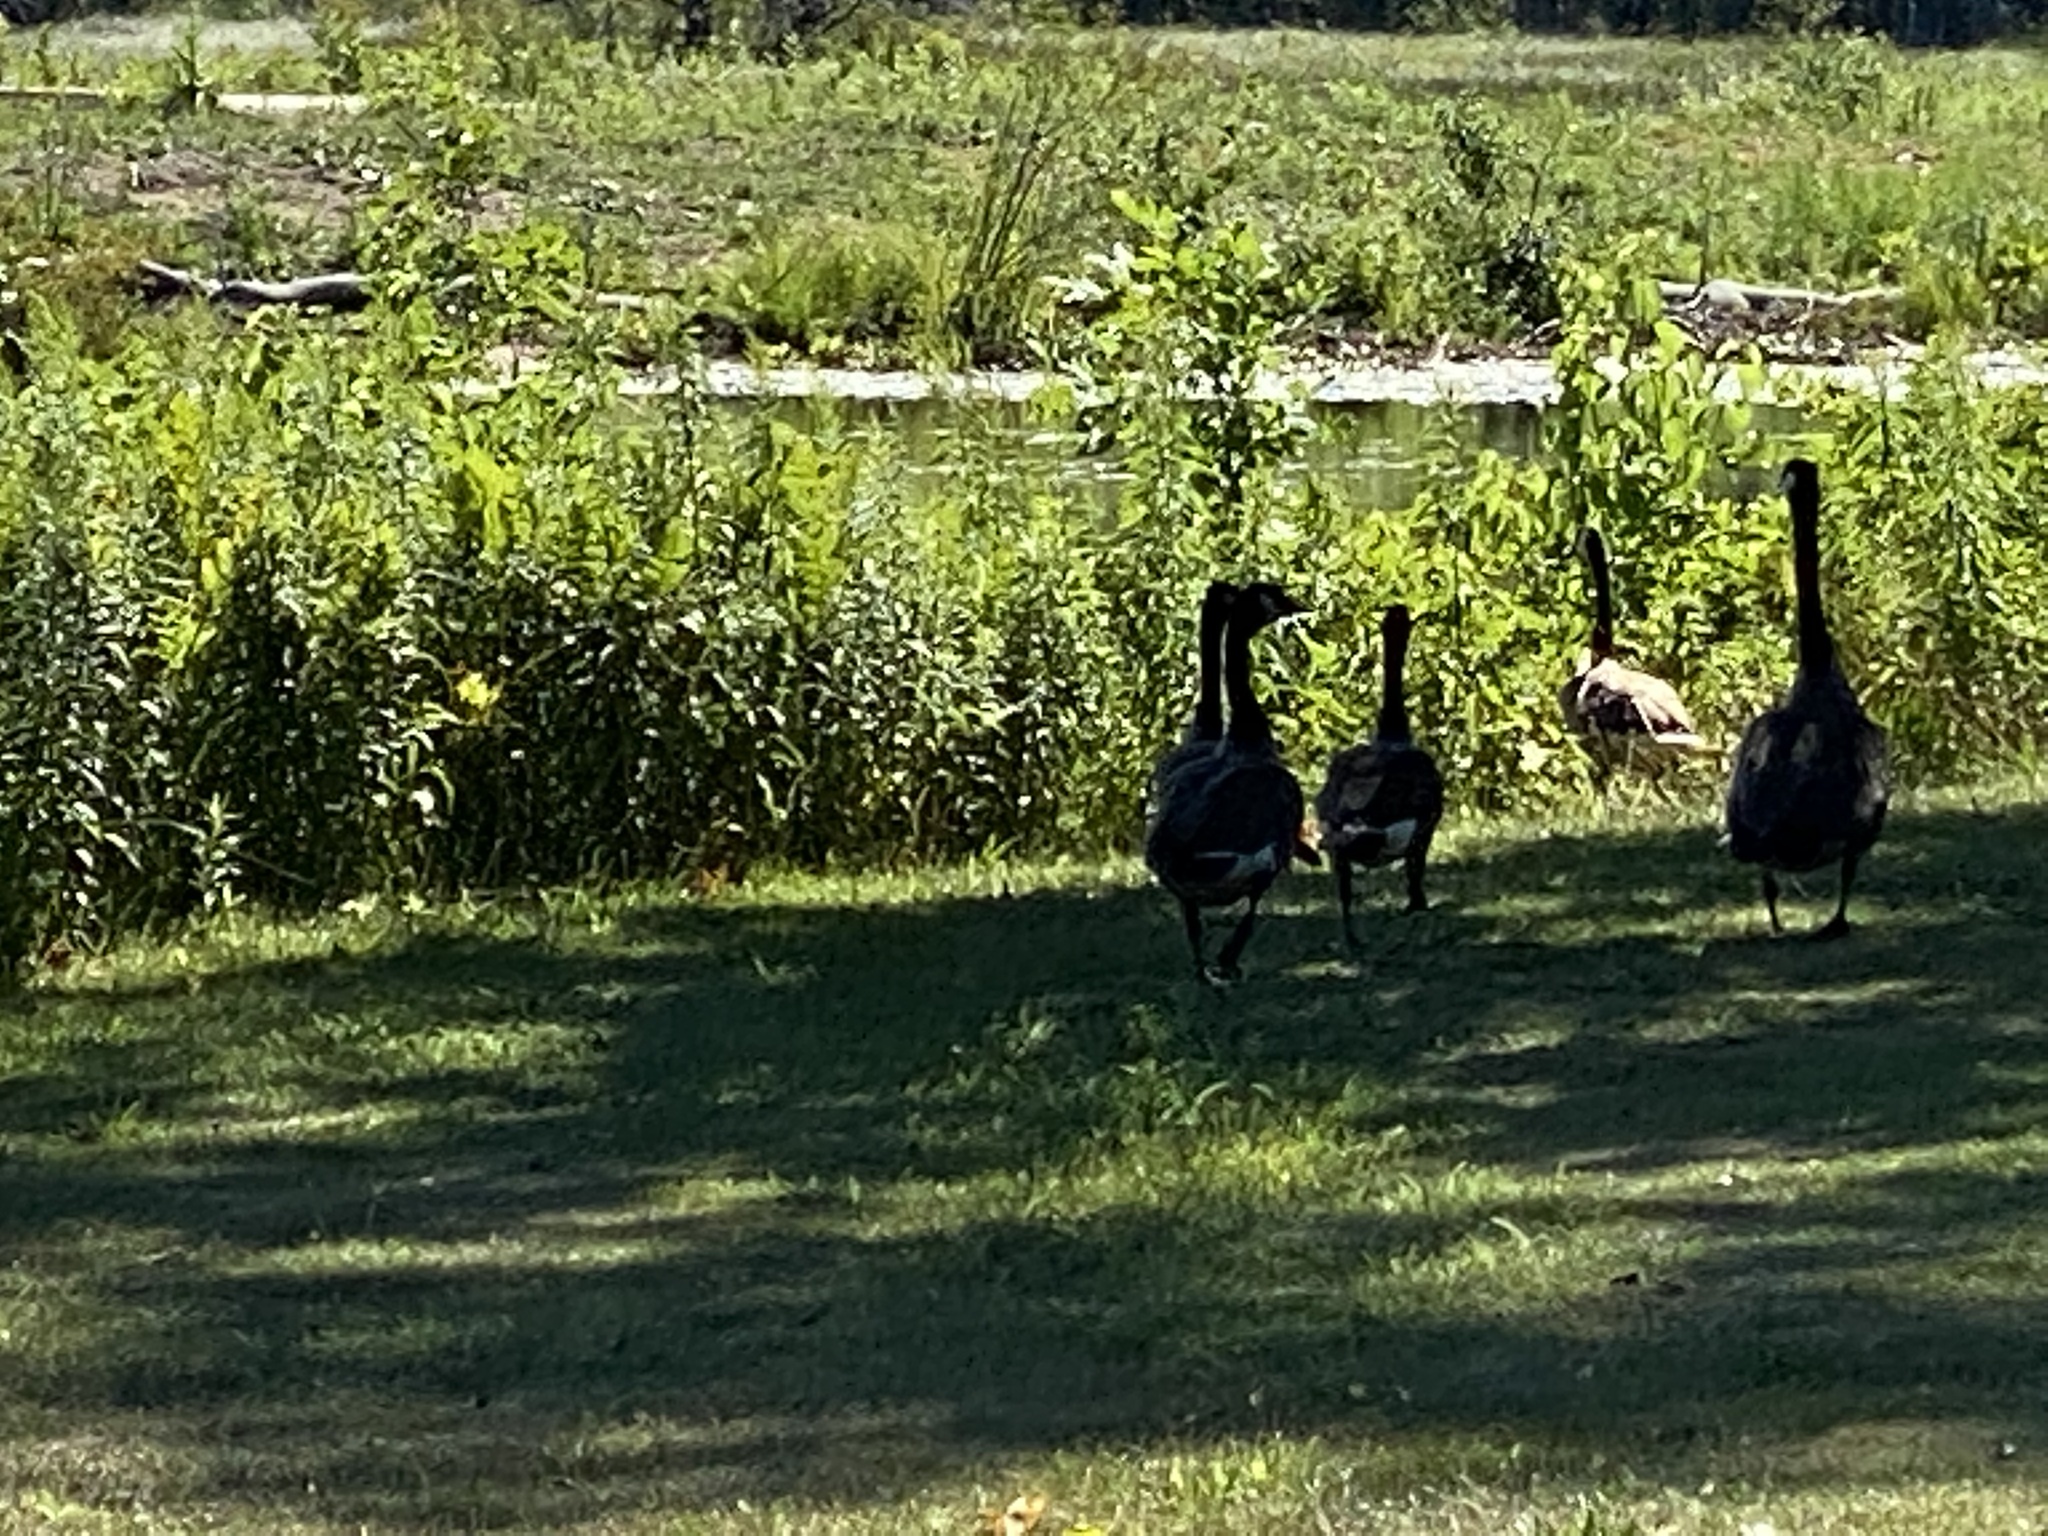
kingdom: Animalia
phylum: Chordata
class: Aves
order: Anseriformes
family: Anatidae
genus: Branta
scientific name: Branta canadensis
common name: Canada goose
